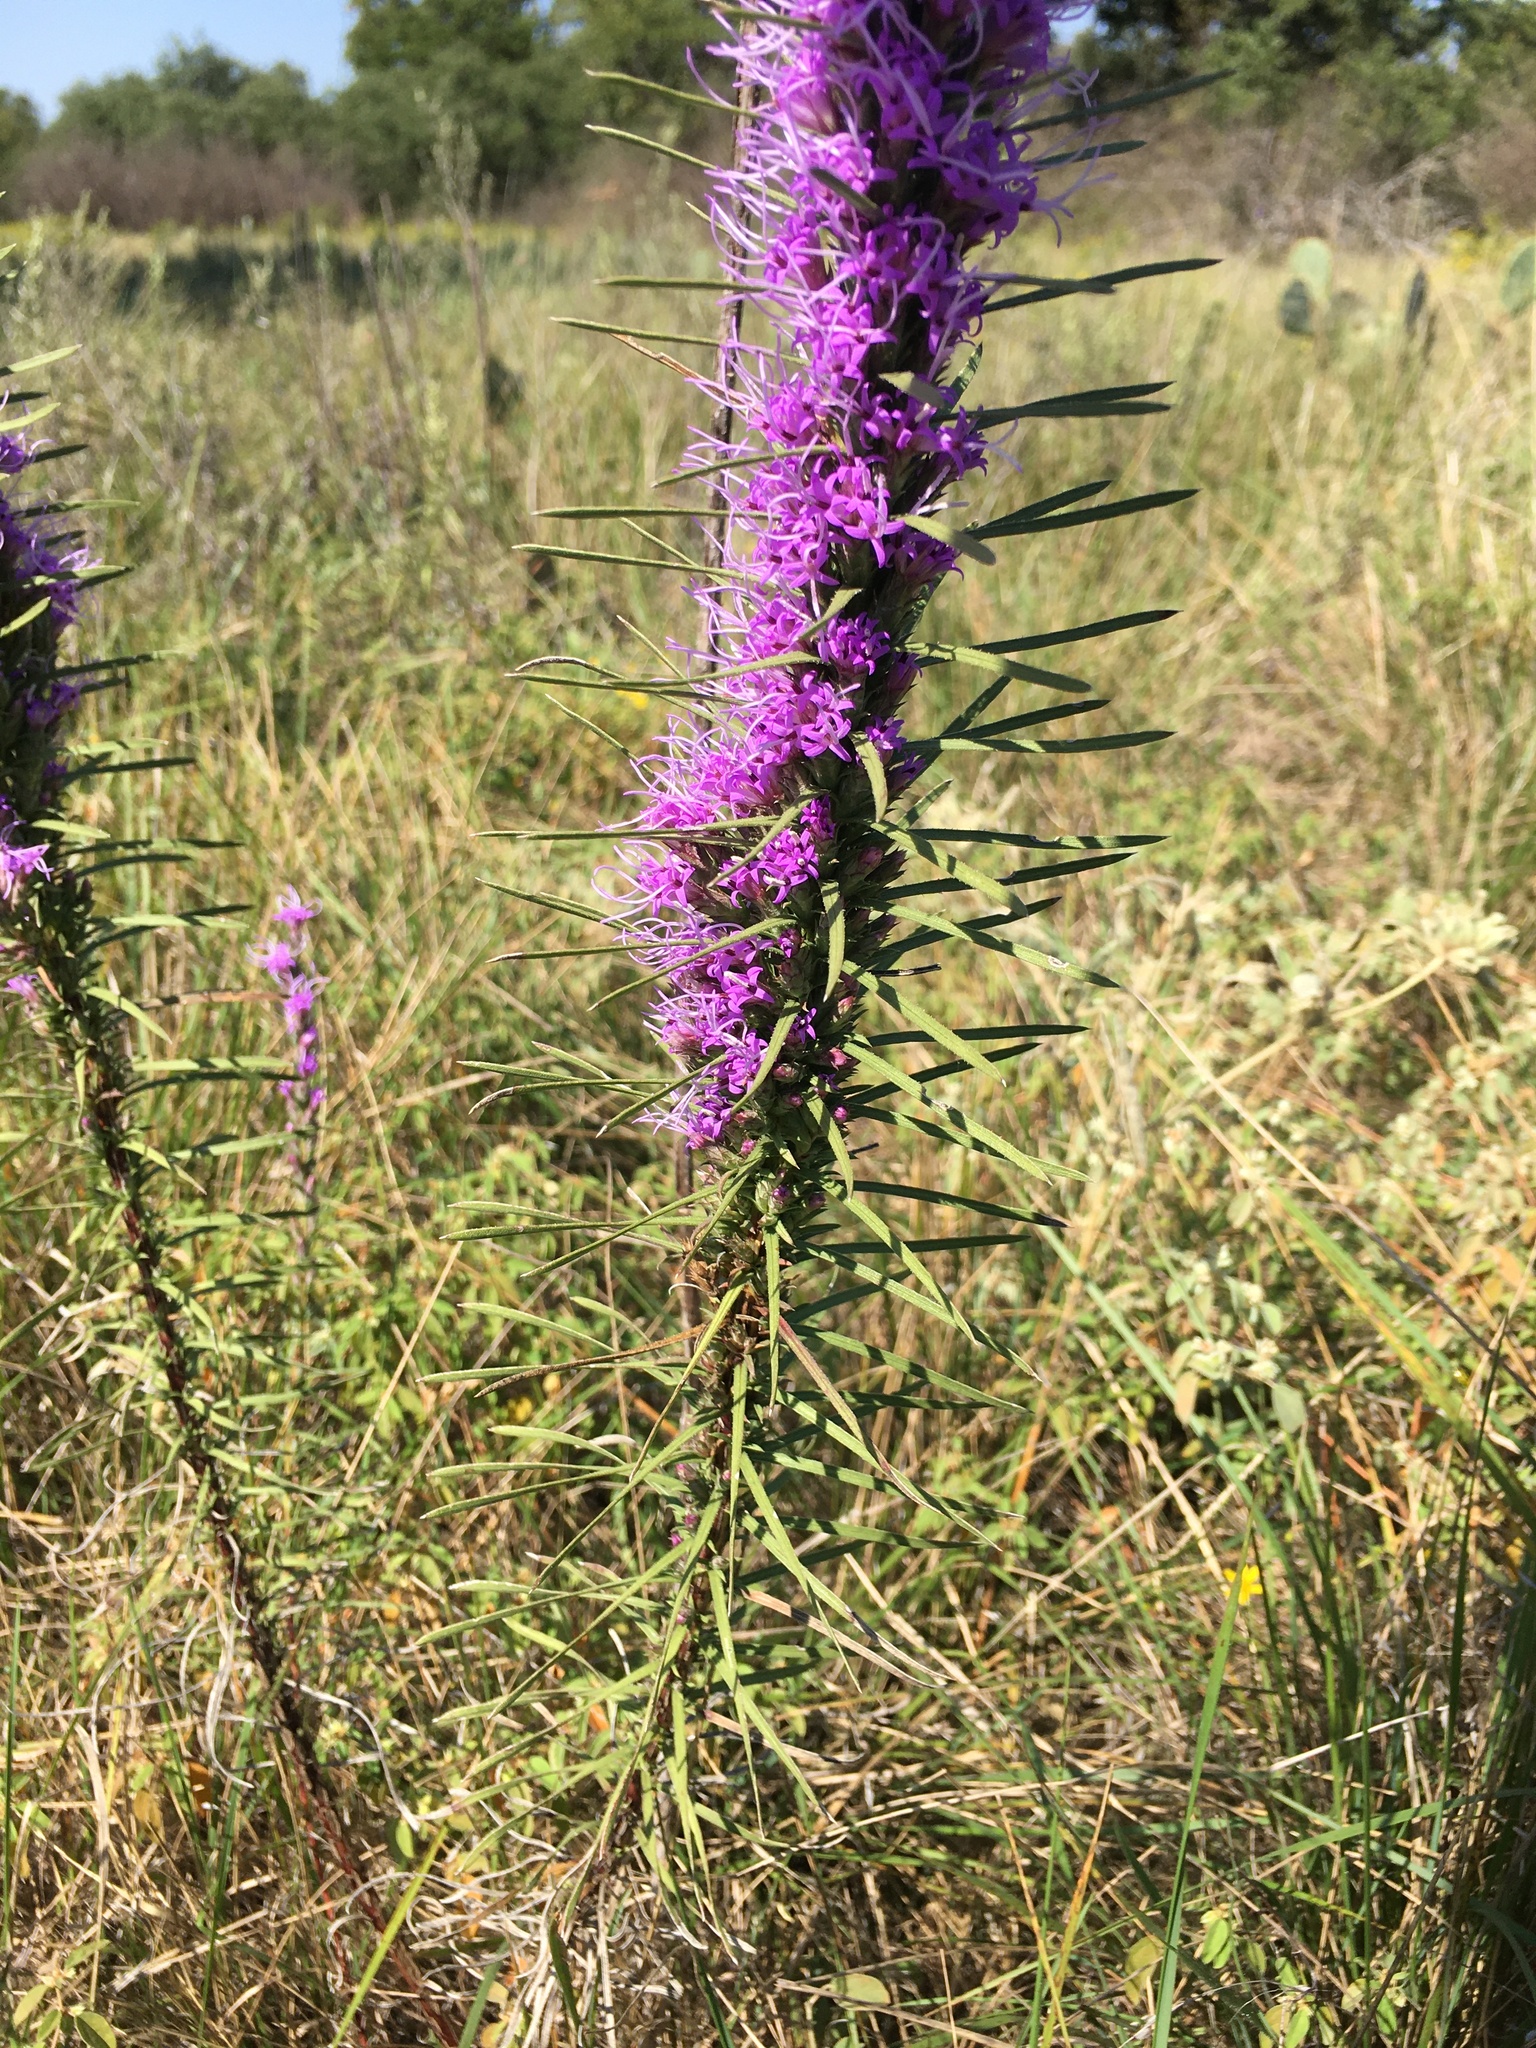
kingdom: Plantae
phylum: Tracheophyta
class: Magnoliopsida
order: Asterales
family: Asteraceae
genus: Liatris
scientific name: Liatris punctata
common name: Dotted gayfeather
